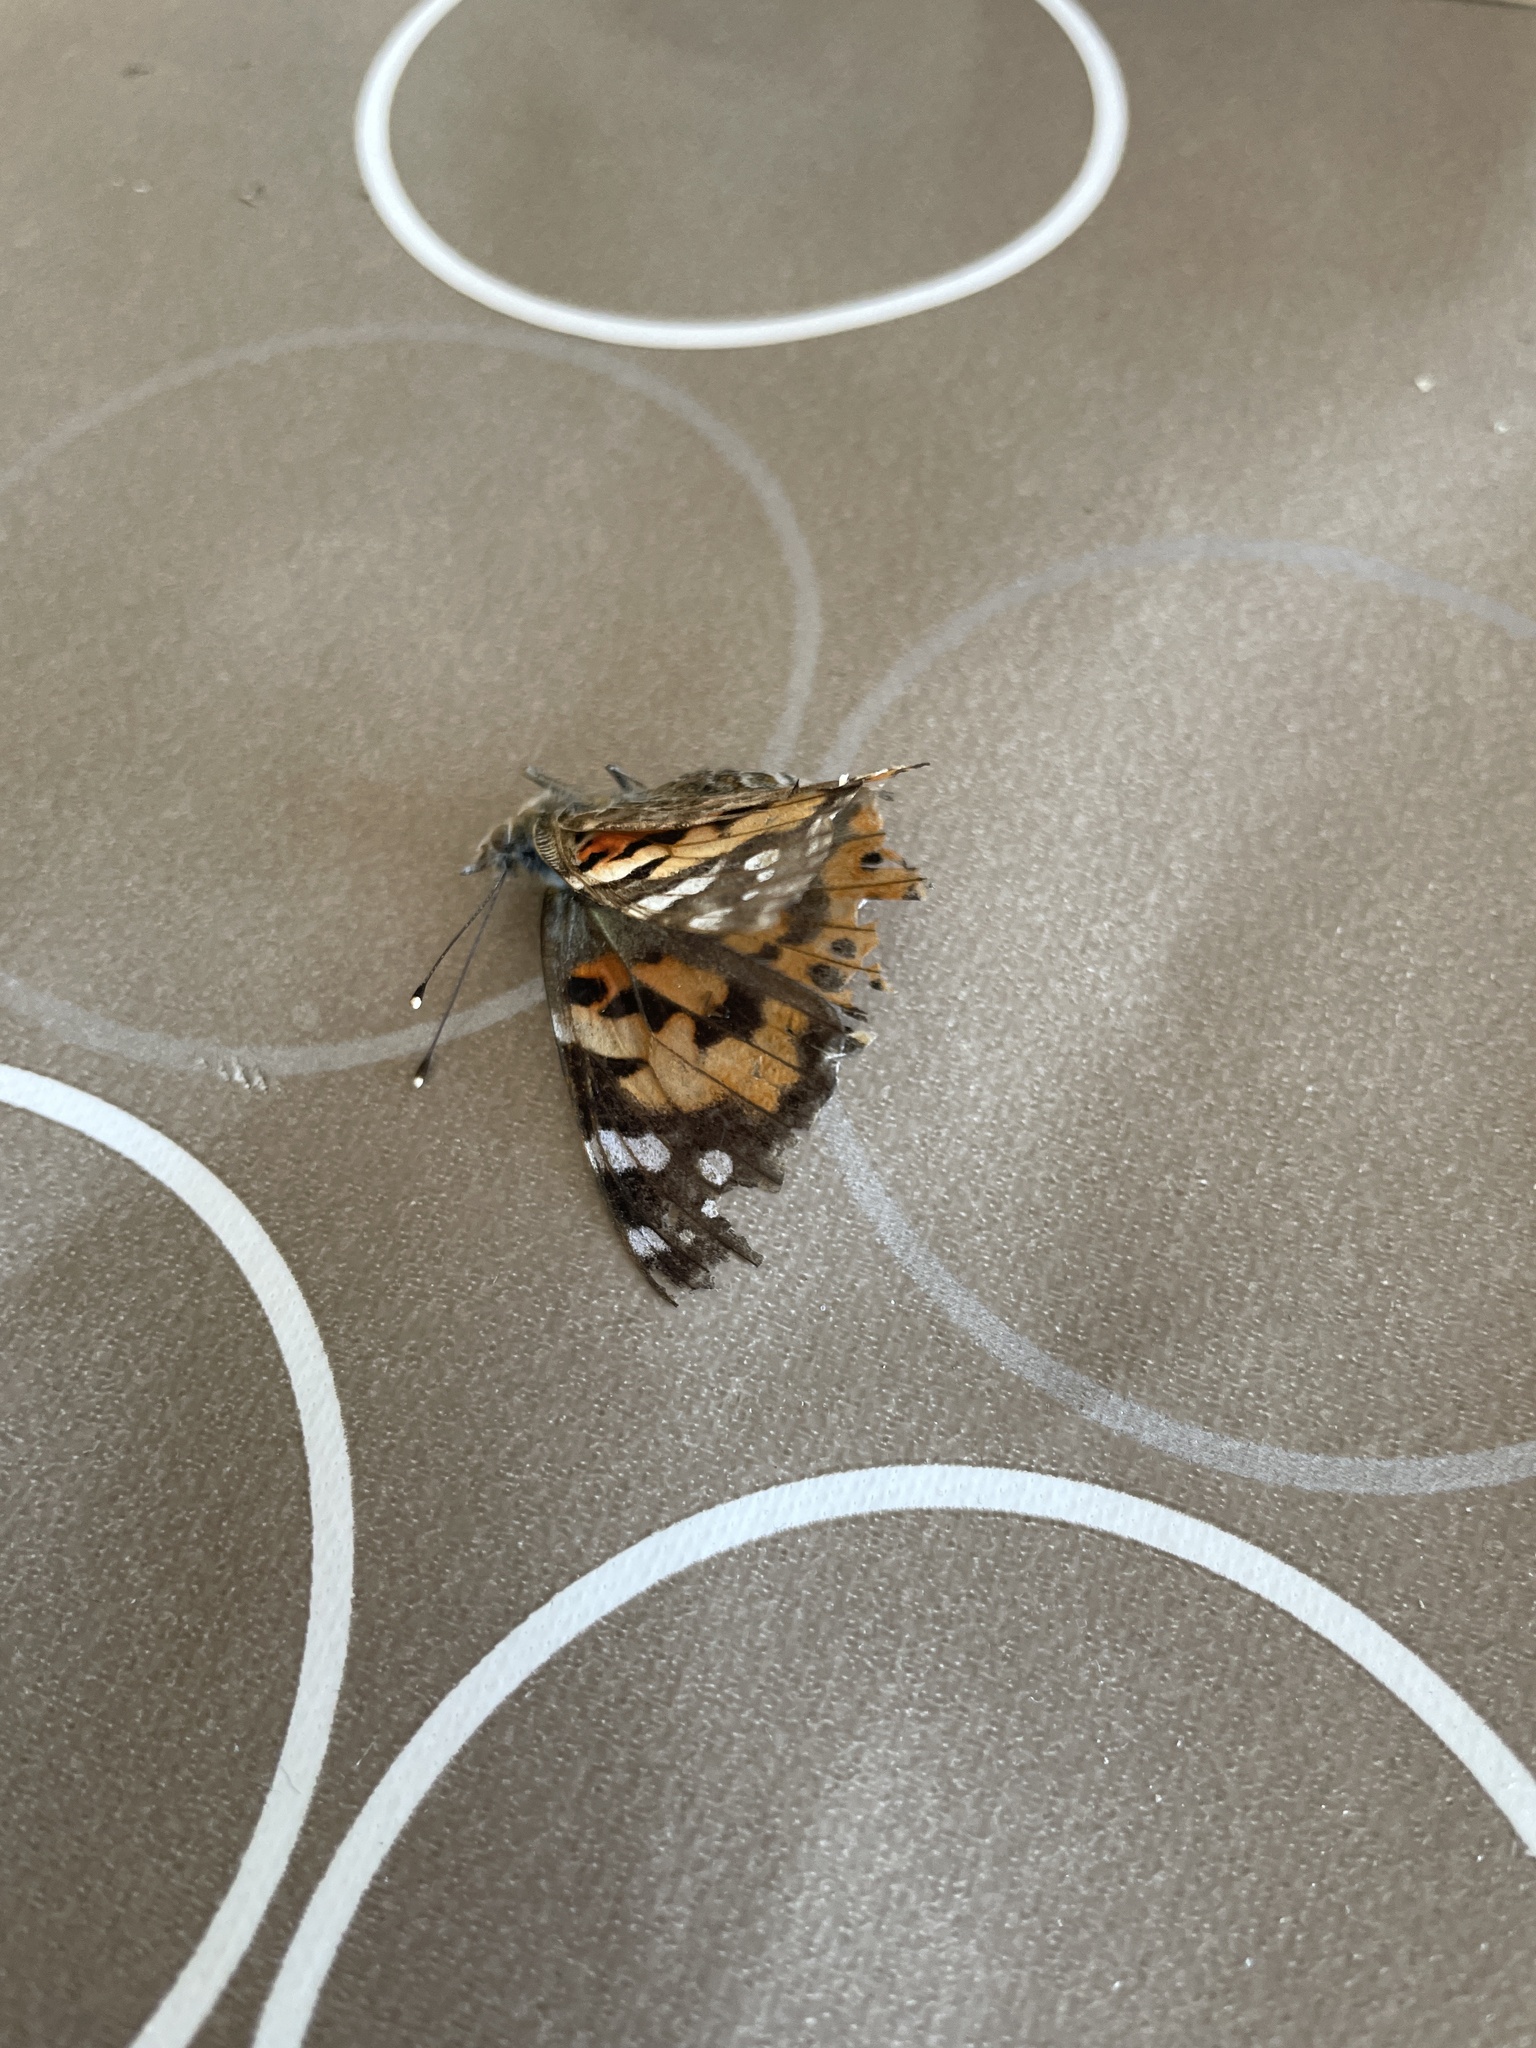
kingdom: Animalia
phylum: Arthropoda
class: Insecta
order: Lepidoptera
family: Nymphalidae
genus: Vanessa
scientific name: Vanessa cardui
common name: Painted lady
